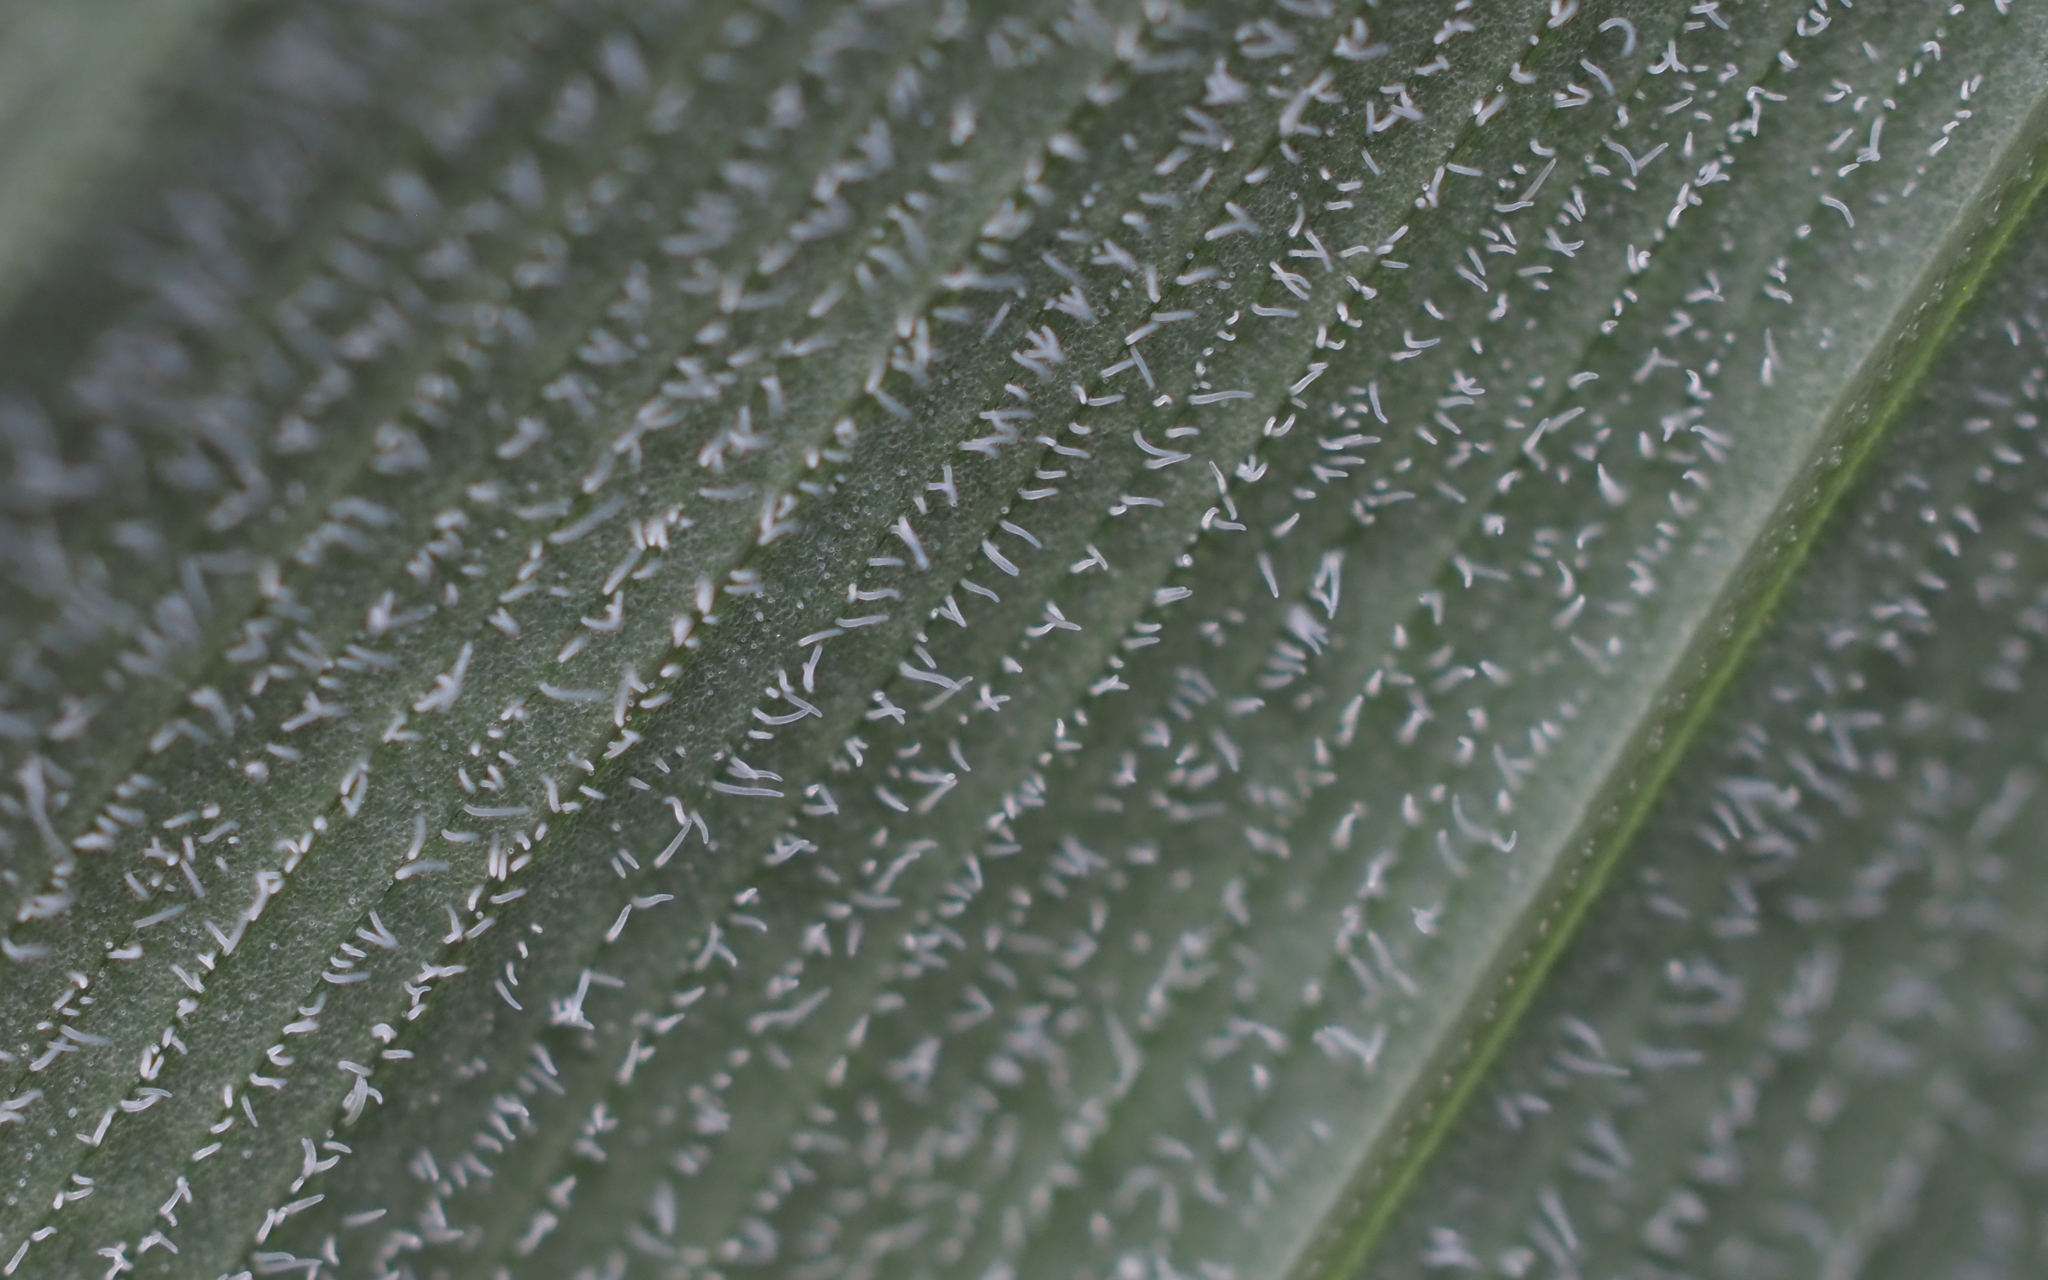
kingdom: Plantae
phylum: Tracheophyta
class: Liliopsida
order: Asparagales
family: Asparagaceae
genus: Polygonatum
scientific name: Polygonatum pubescens
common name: Downy solomon's seal
